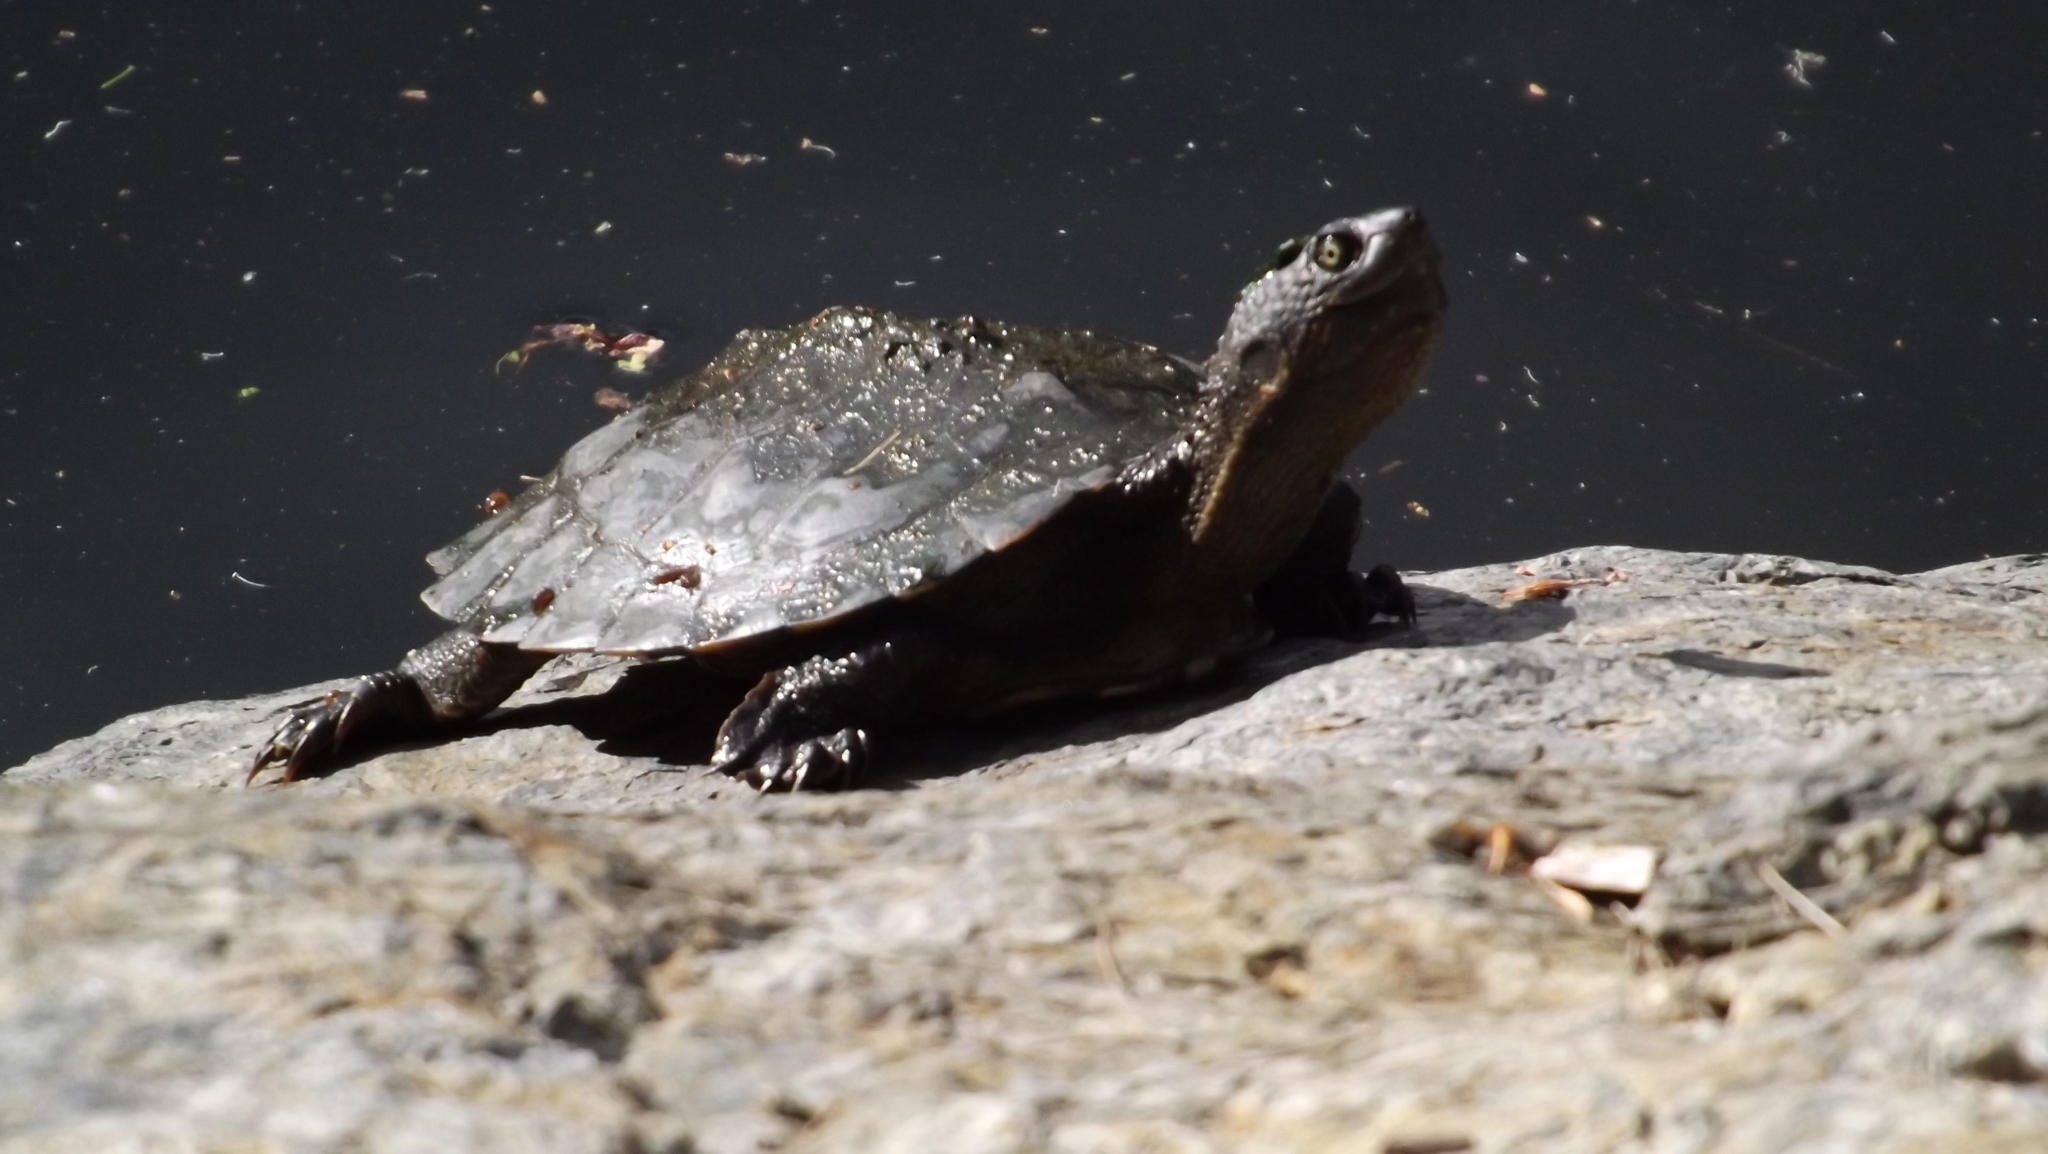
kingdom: Animalia
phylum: Chordata
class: Testudines
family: Chelidae
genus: Myuchelys
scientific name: Myuchelys latisternum
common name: Serrated snapping turtle
